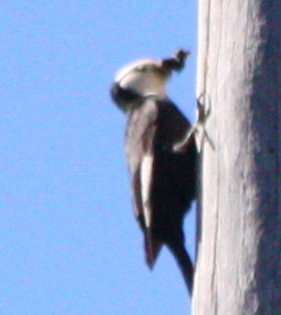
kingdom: Animalia
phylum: Chordata
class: Aves
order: Piciformes
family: Picidae
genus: Leuconotopicus
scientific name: Leuconotopicus albolarvatus
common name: White-headed woodpecker
